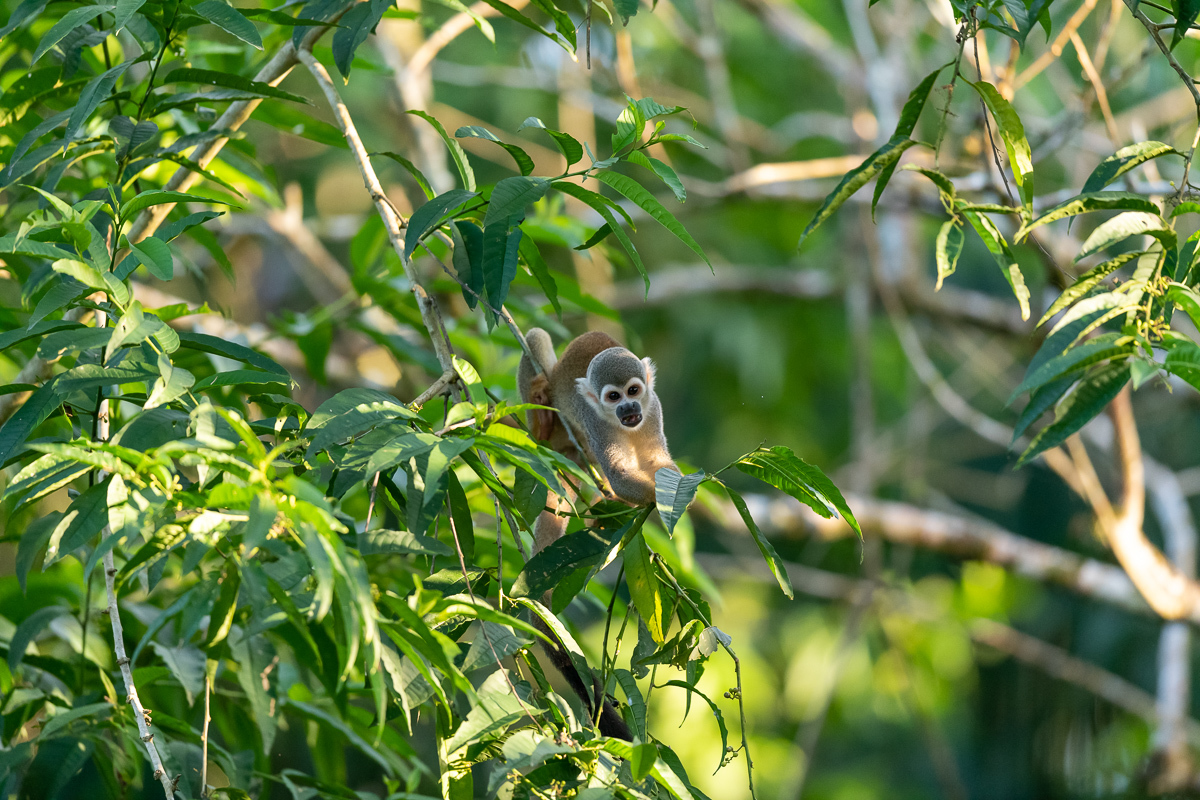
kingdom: Animalia
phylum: Chordata
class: Mammalia
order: Primates
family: Cebidae
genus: Saimiri
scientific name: Saimiri cassiquiarensis
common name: Humboldt’s squirrel monkey
